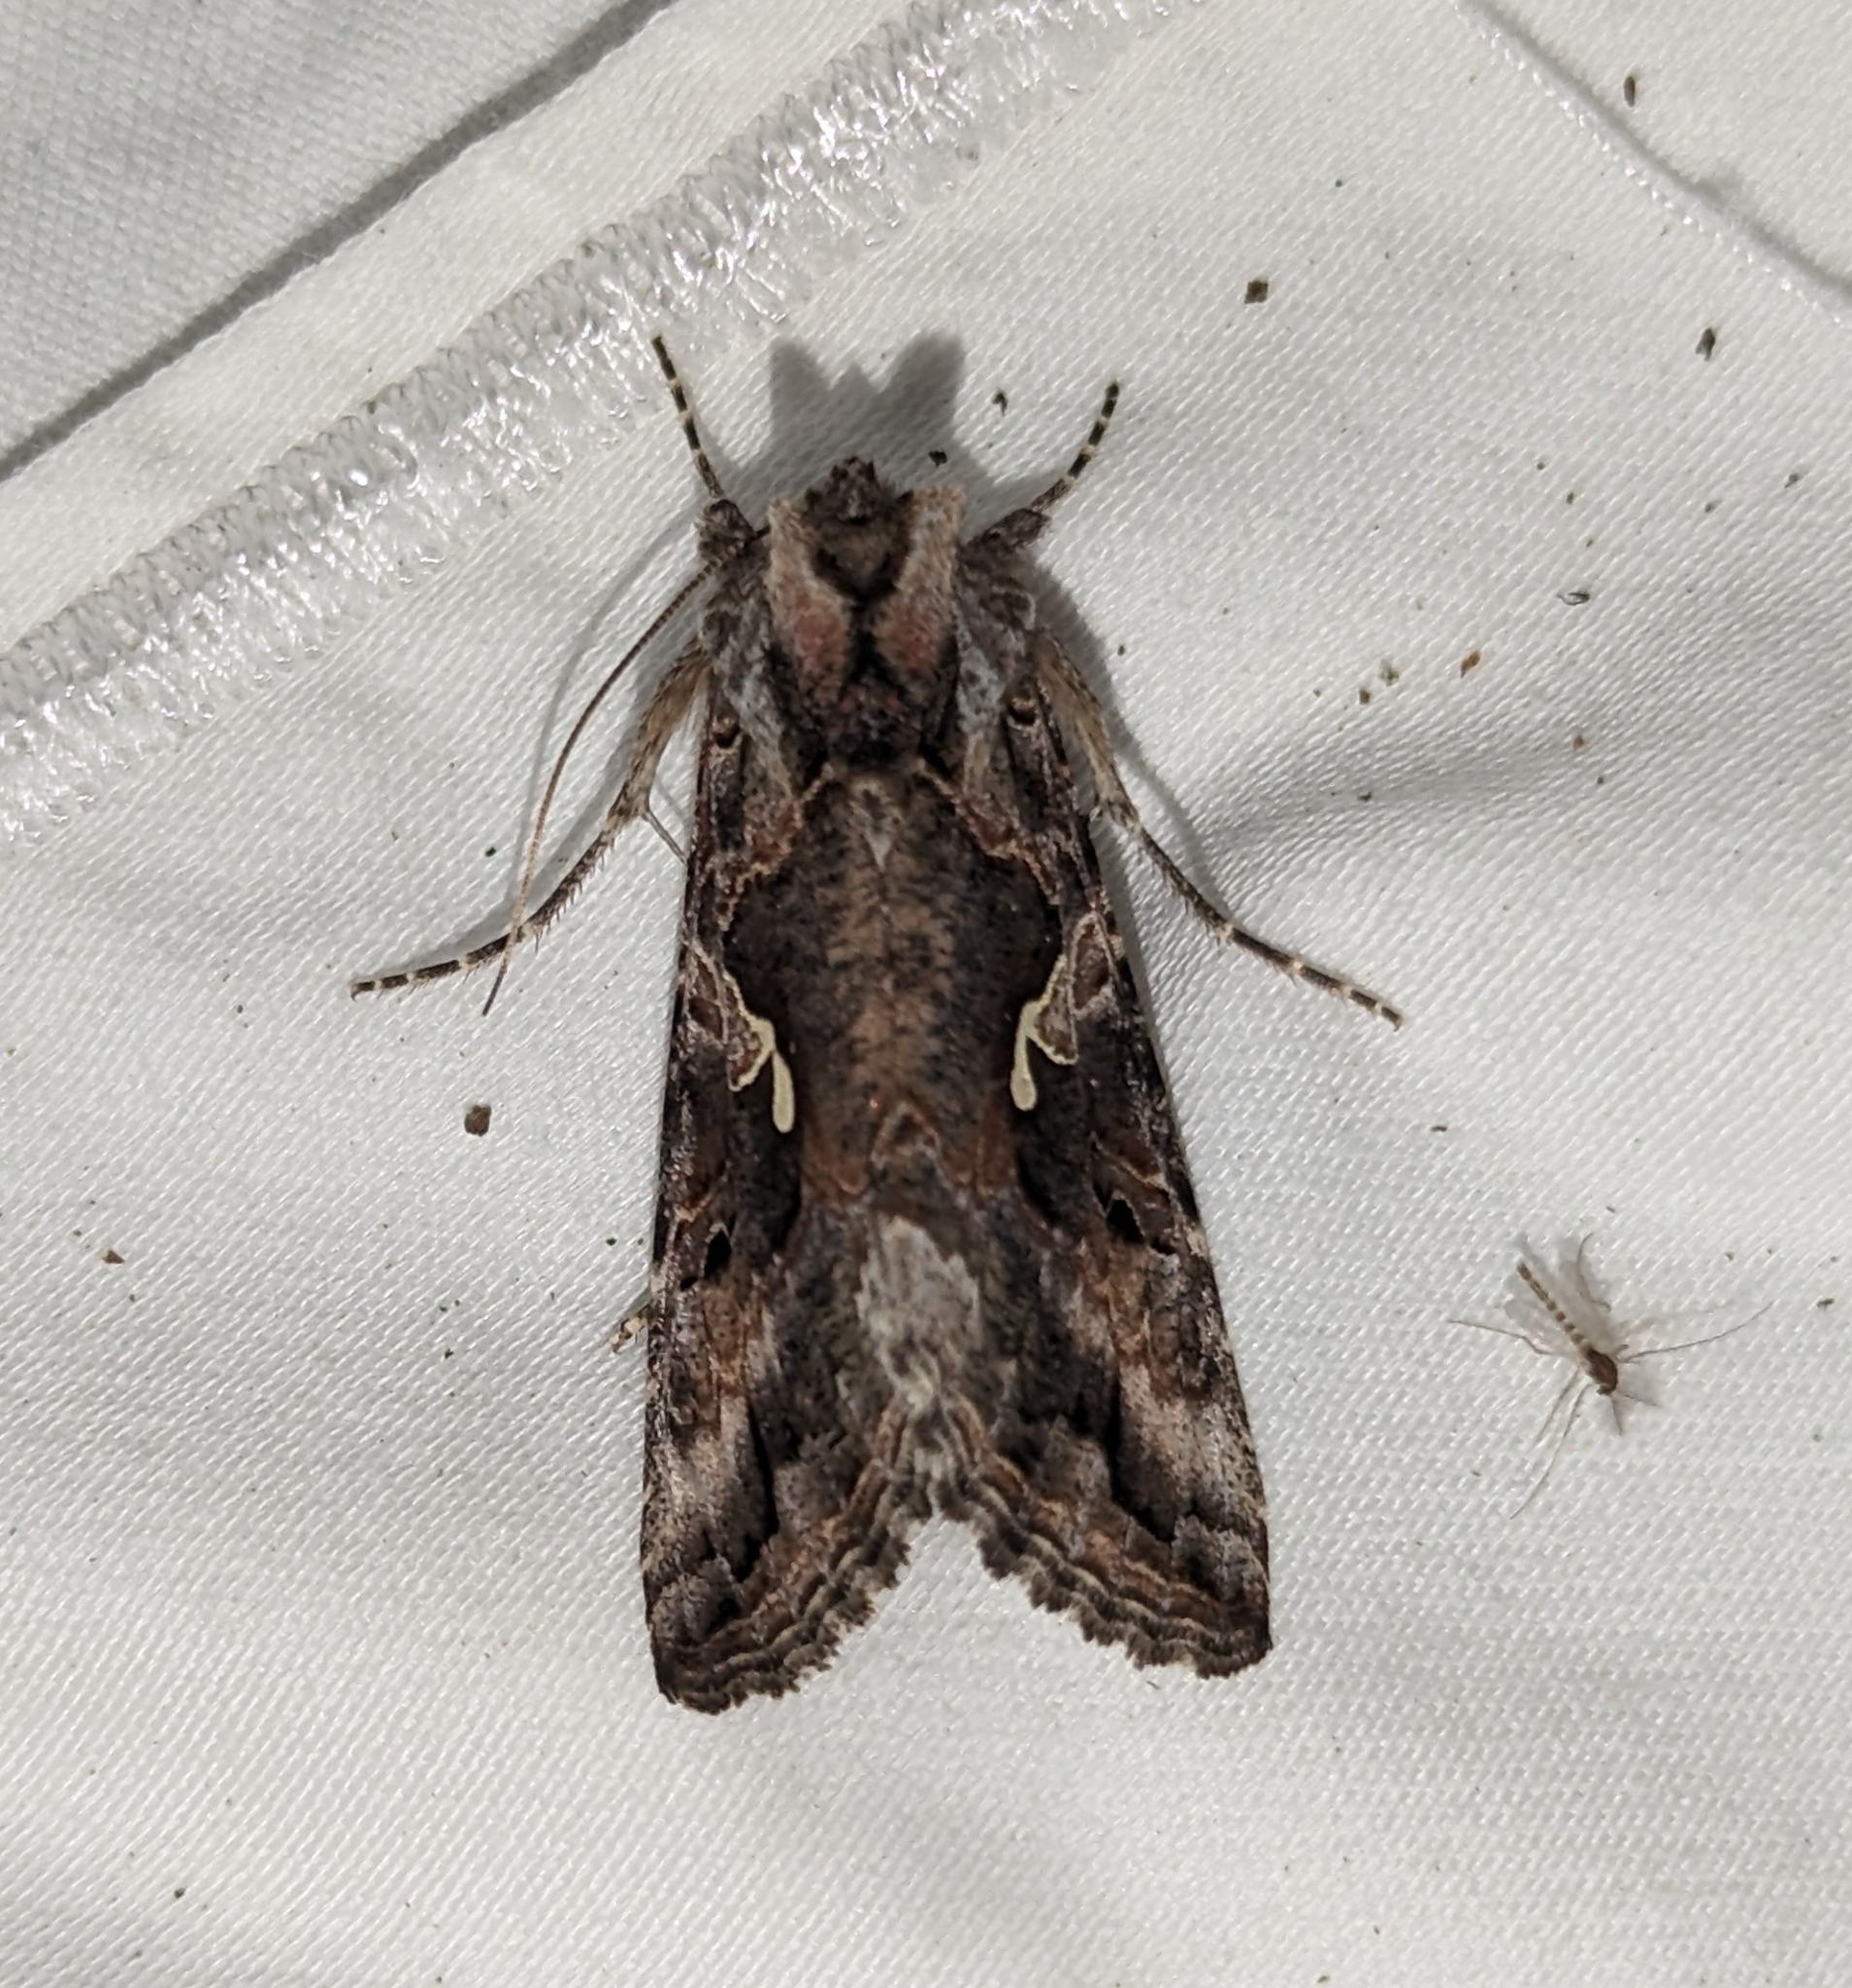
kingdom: Animalia
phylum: Arthropoda
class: Insecta
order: Lepidoptera
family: Noctuidae
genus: Autographa
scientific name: Autographa californica
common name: Alfalfa looper
